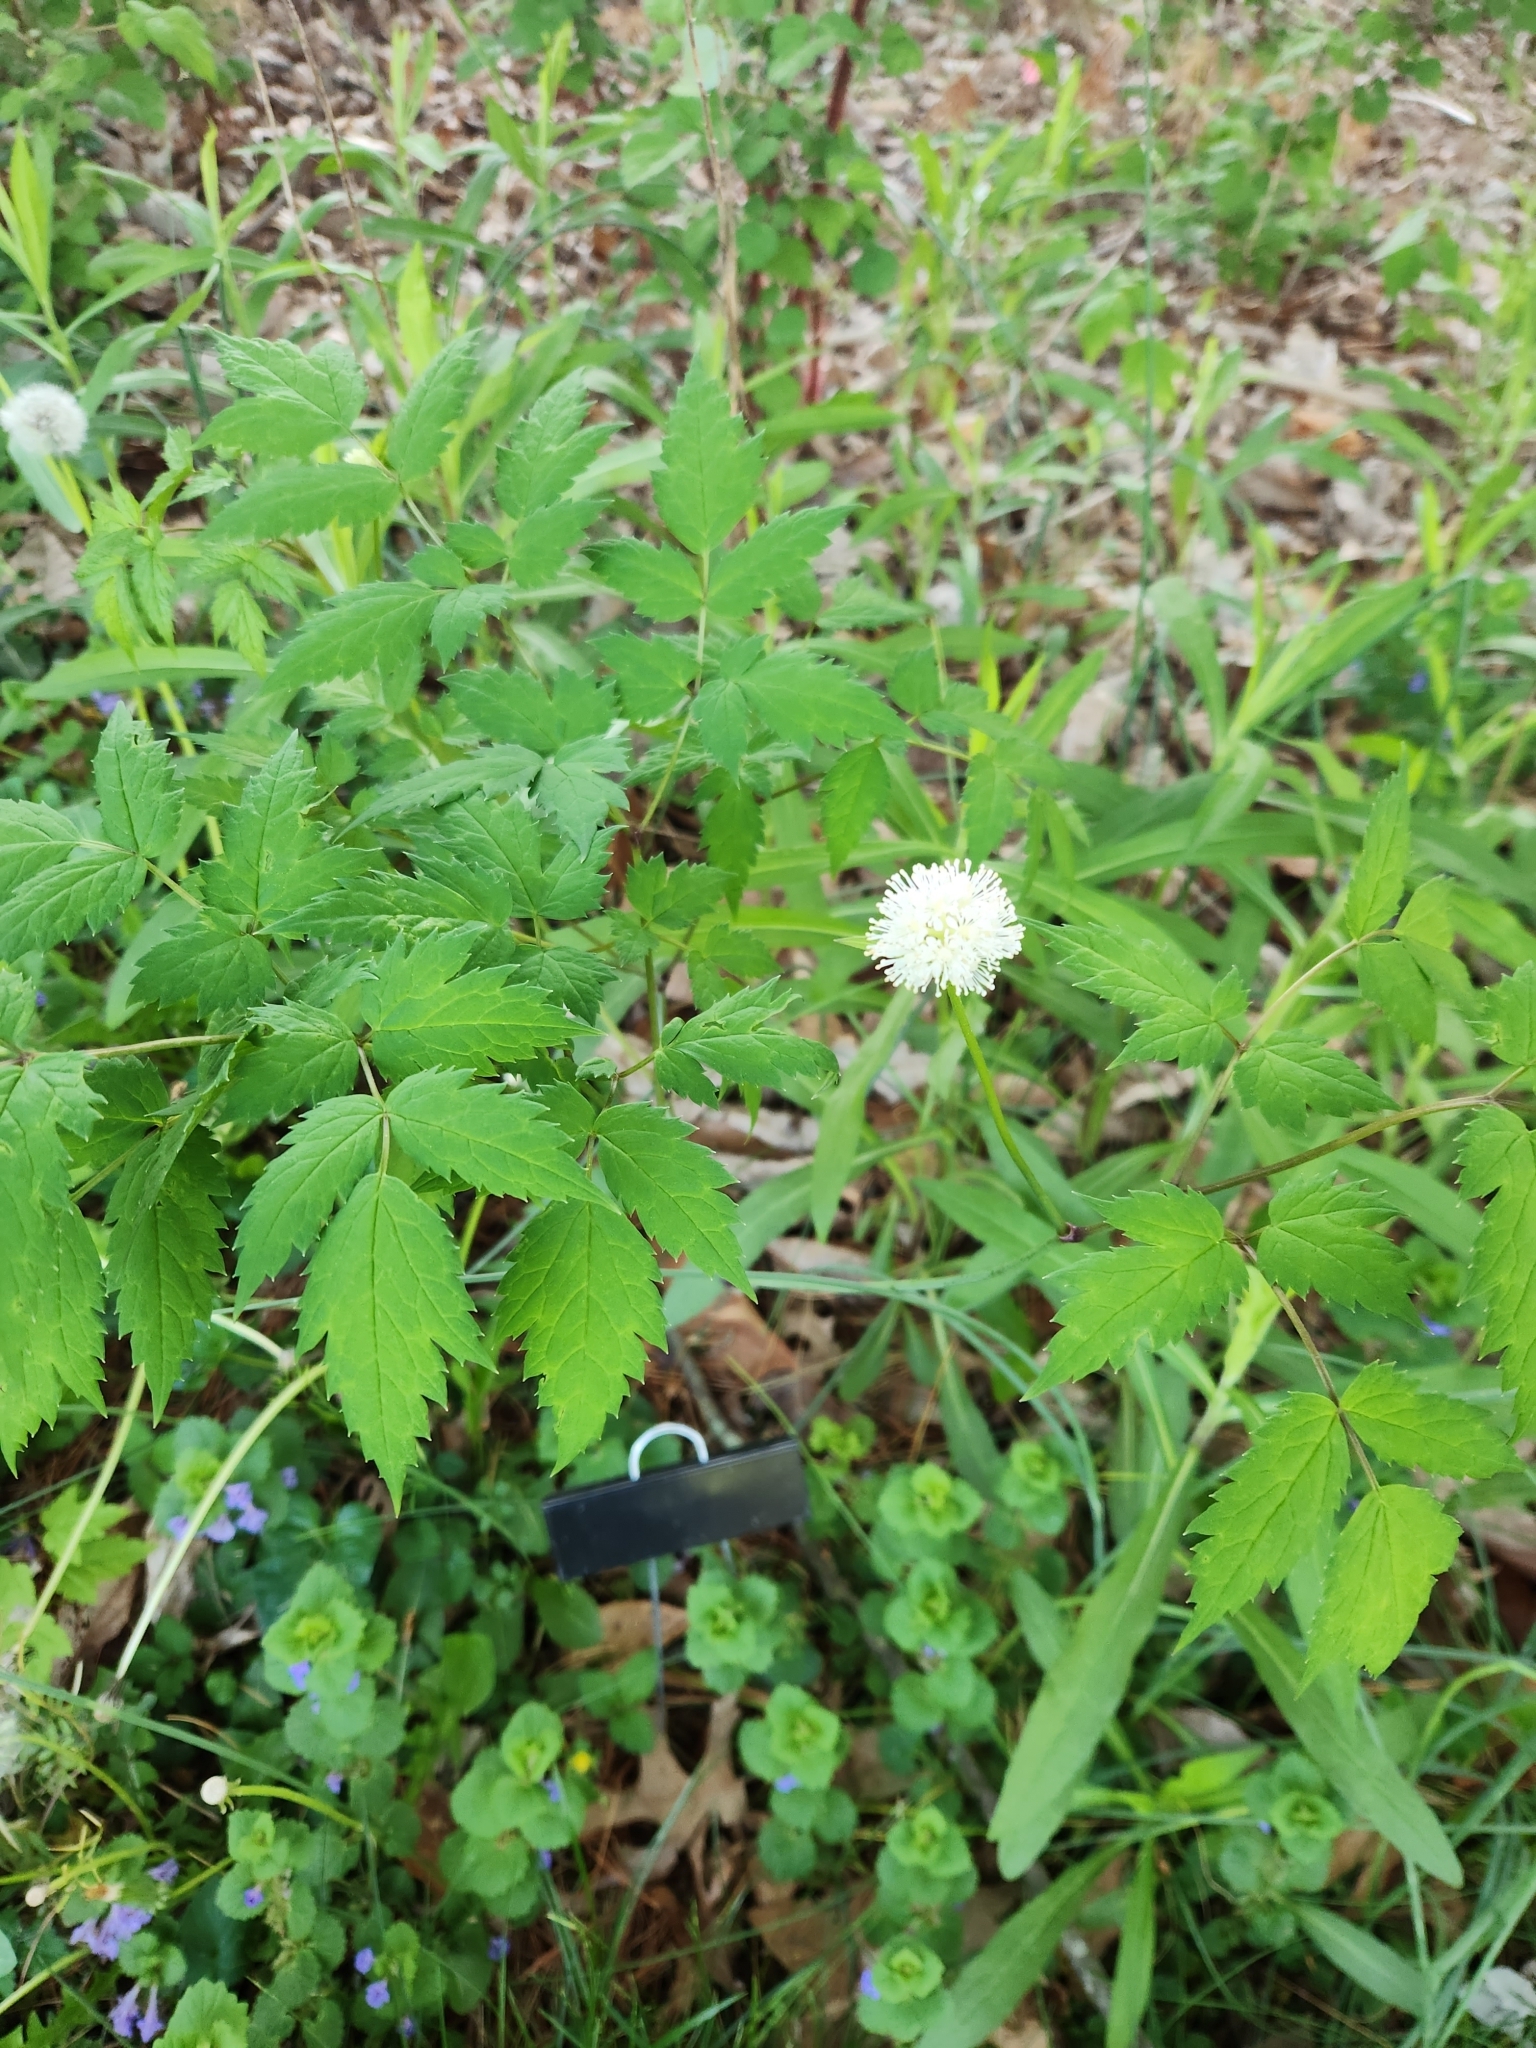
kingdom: Plantae
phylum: Tracheophyta
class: Magnoliopsida
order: Ranunculales
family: Ranunculaceae
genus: Actaea
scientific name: Actaea pachypoda
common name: Doll's-eyes
